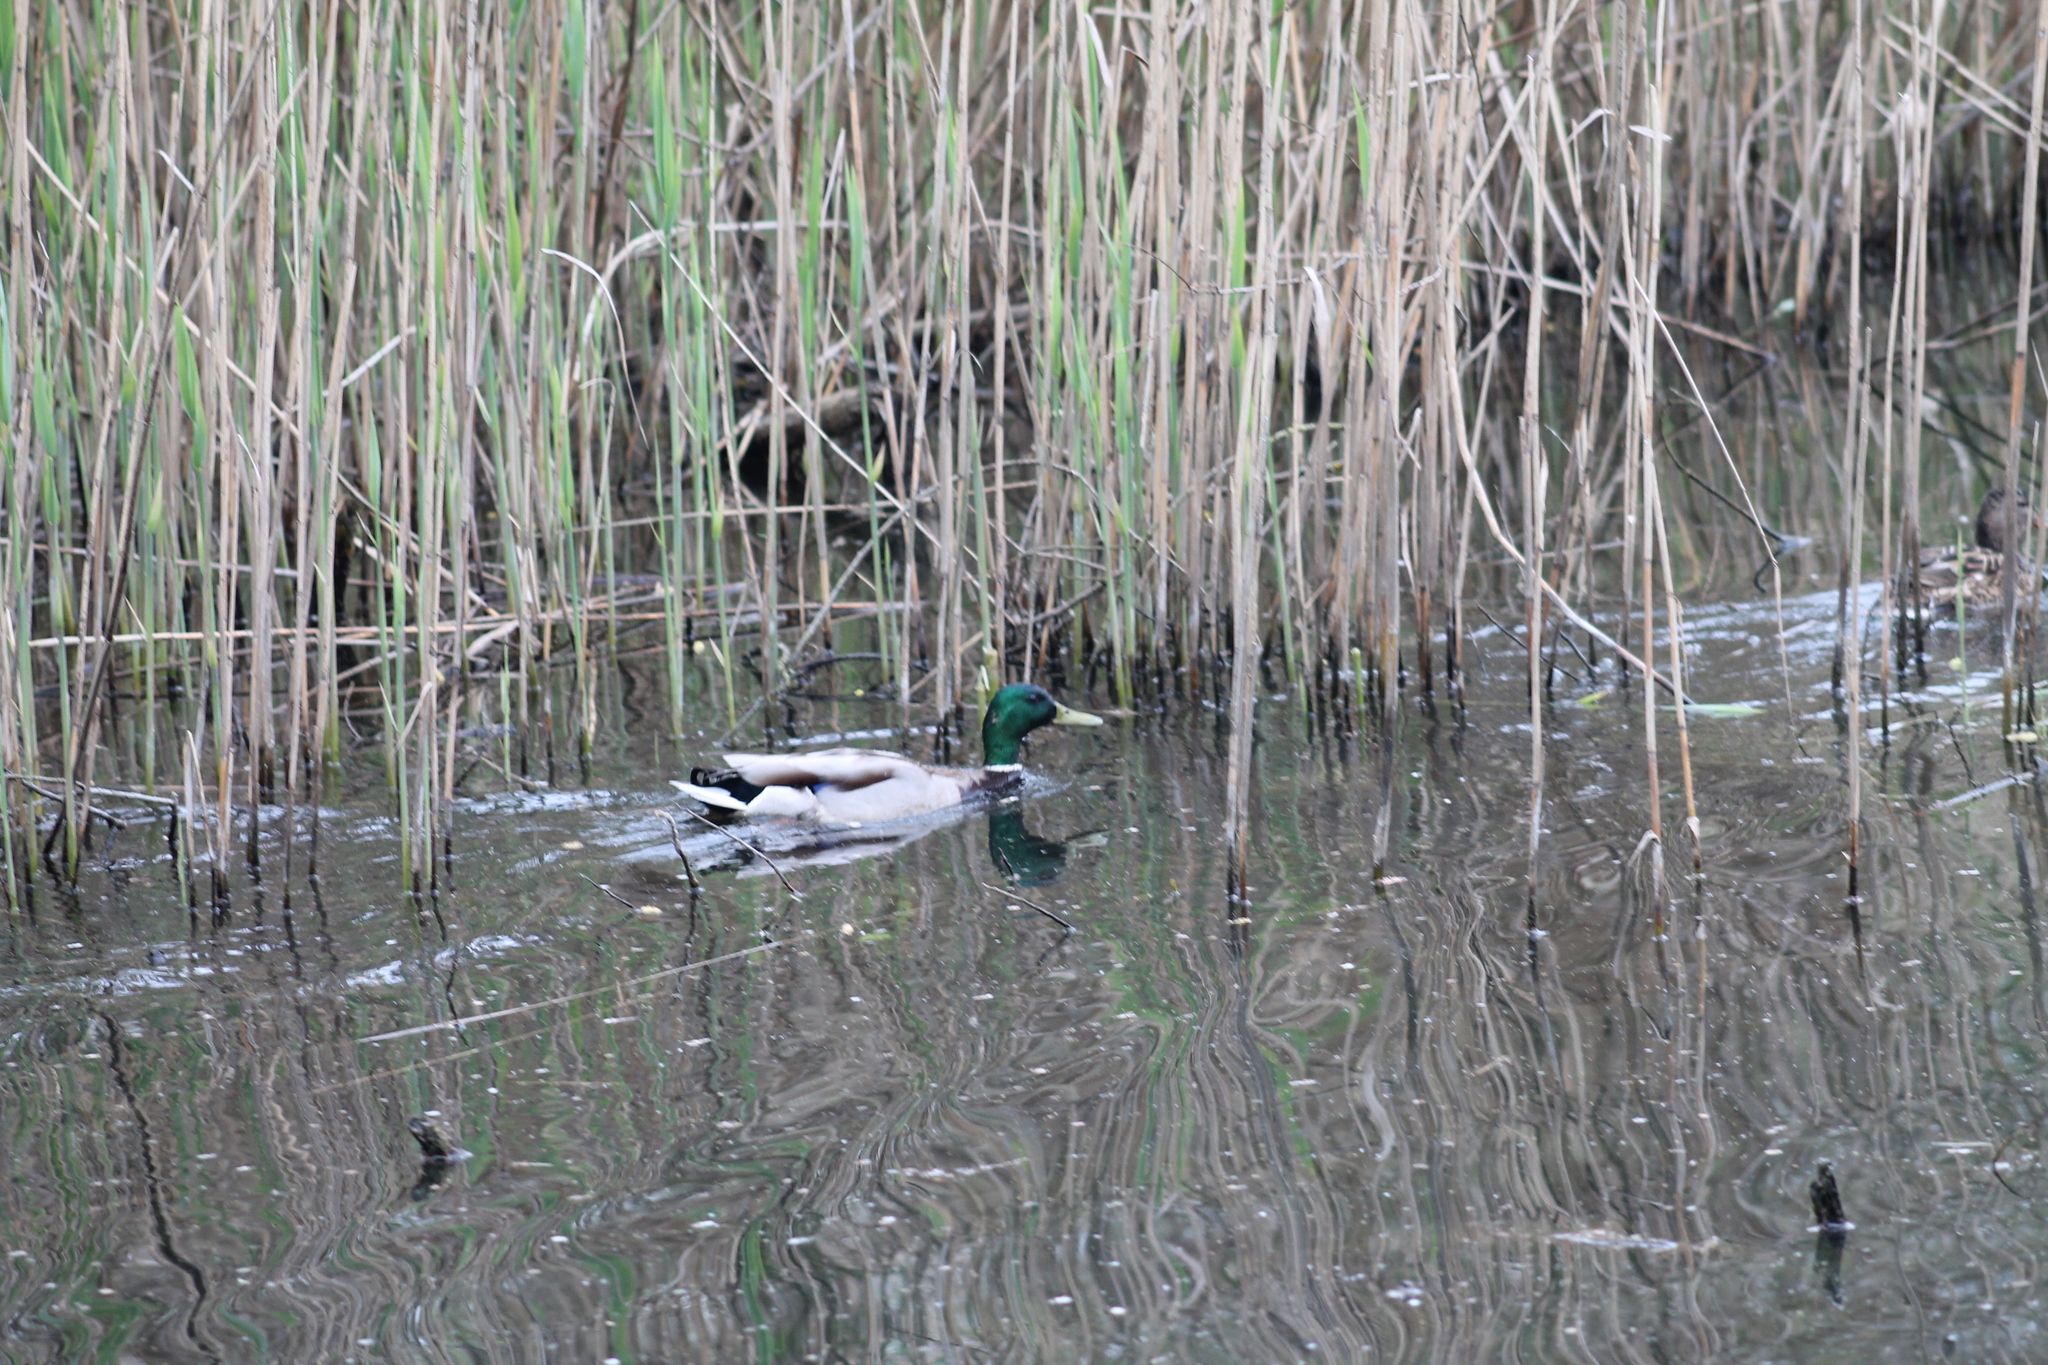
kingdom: Animalia
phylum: Chordata
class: Aves
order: Anseriformes
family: Anatidae
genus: Anas
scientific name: Anas platyrhynchos
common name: Mallard
